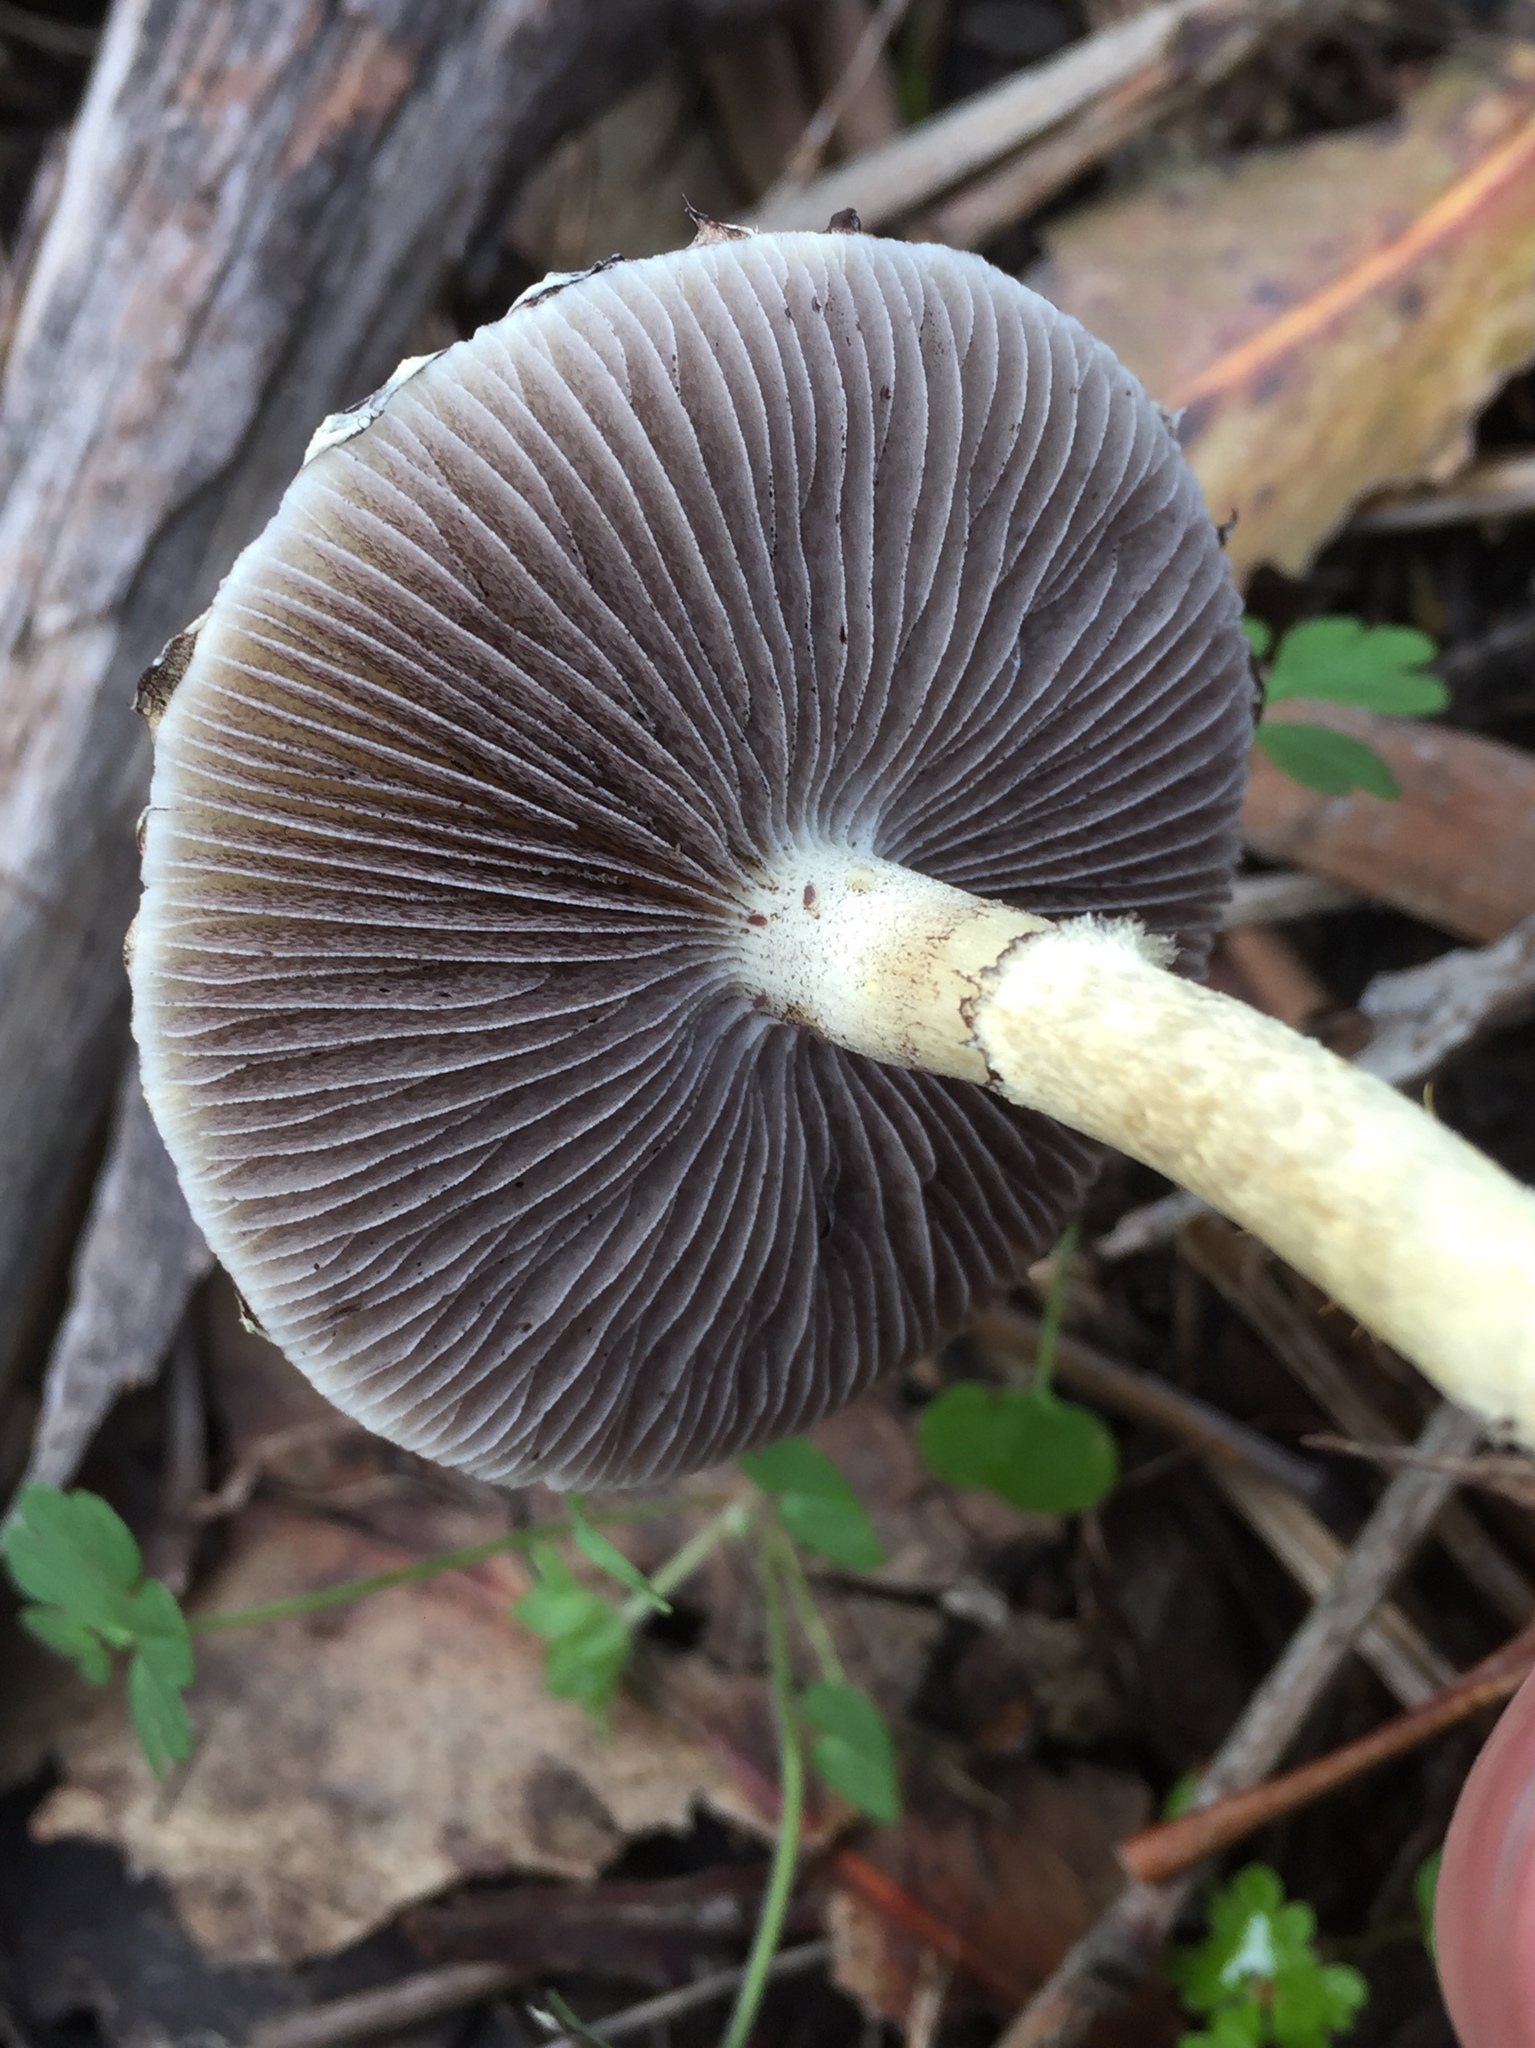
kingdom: Fungi
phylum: Basidiomycota
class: Agaricomycetes
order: Agaricales
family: Strophariaceae
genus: Leratiomyces
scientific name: Leratiomyces percevalii
